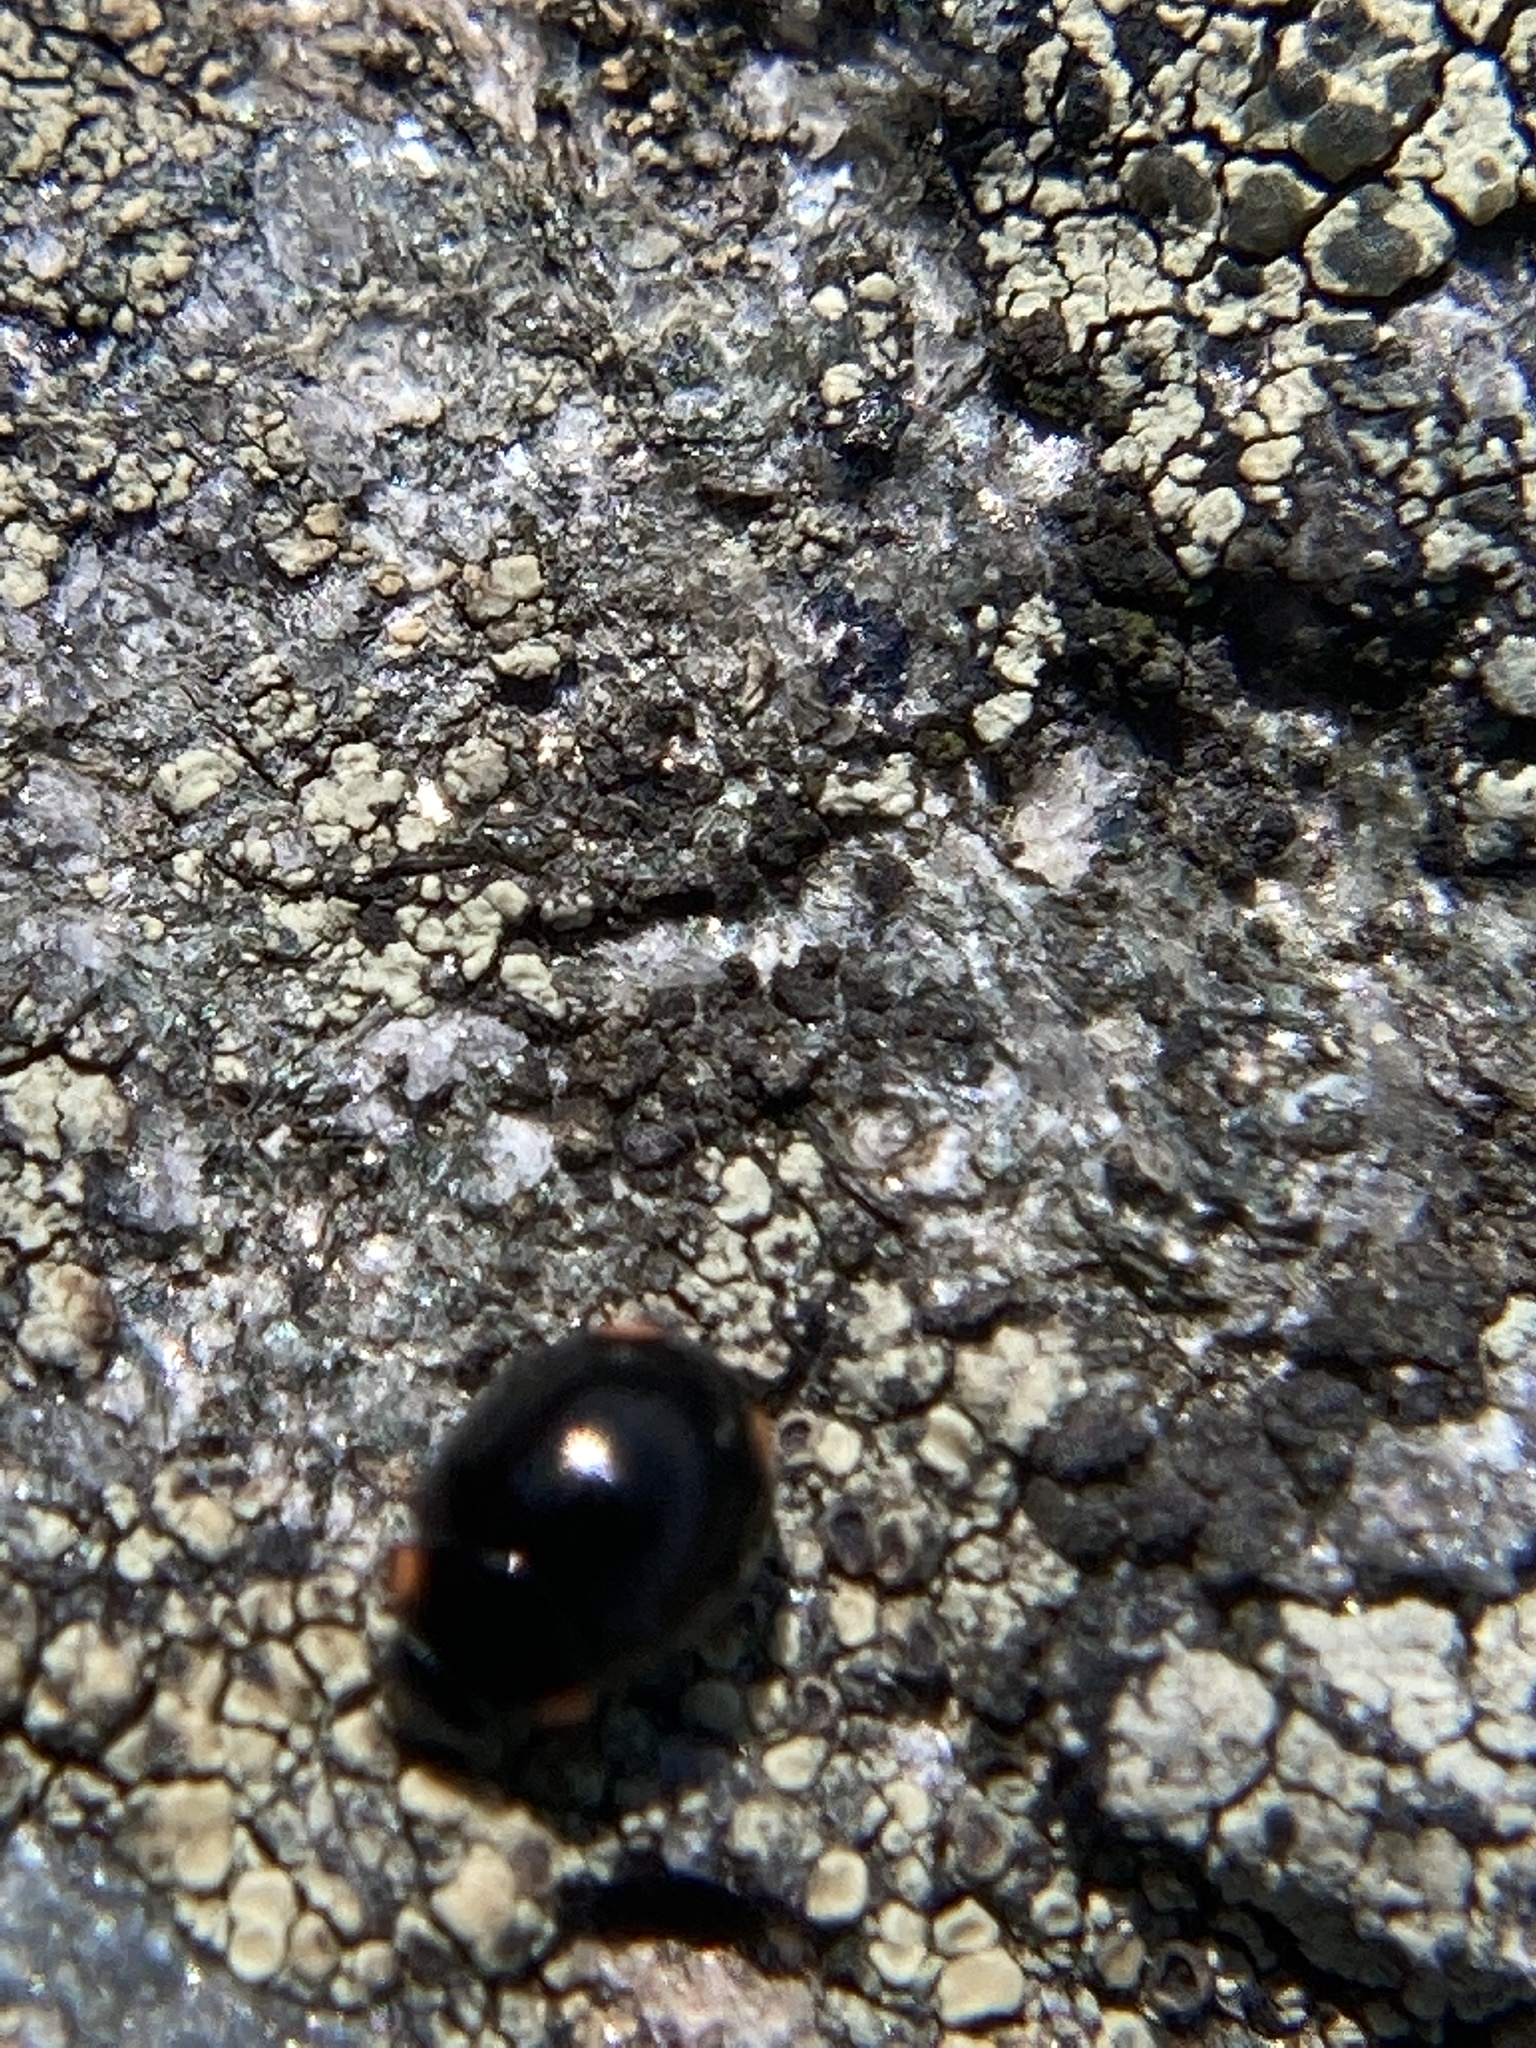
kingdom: Animalia
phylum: Arthropoda
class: Insecta
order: Coleoptera
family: Coccinellidae
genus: Hyperaspis
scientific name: Hyperaspis bigeminata
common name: Bigeminate sigil lady beetle
